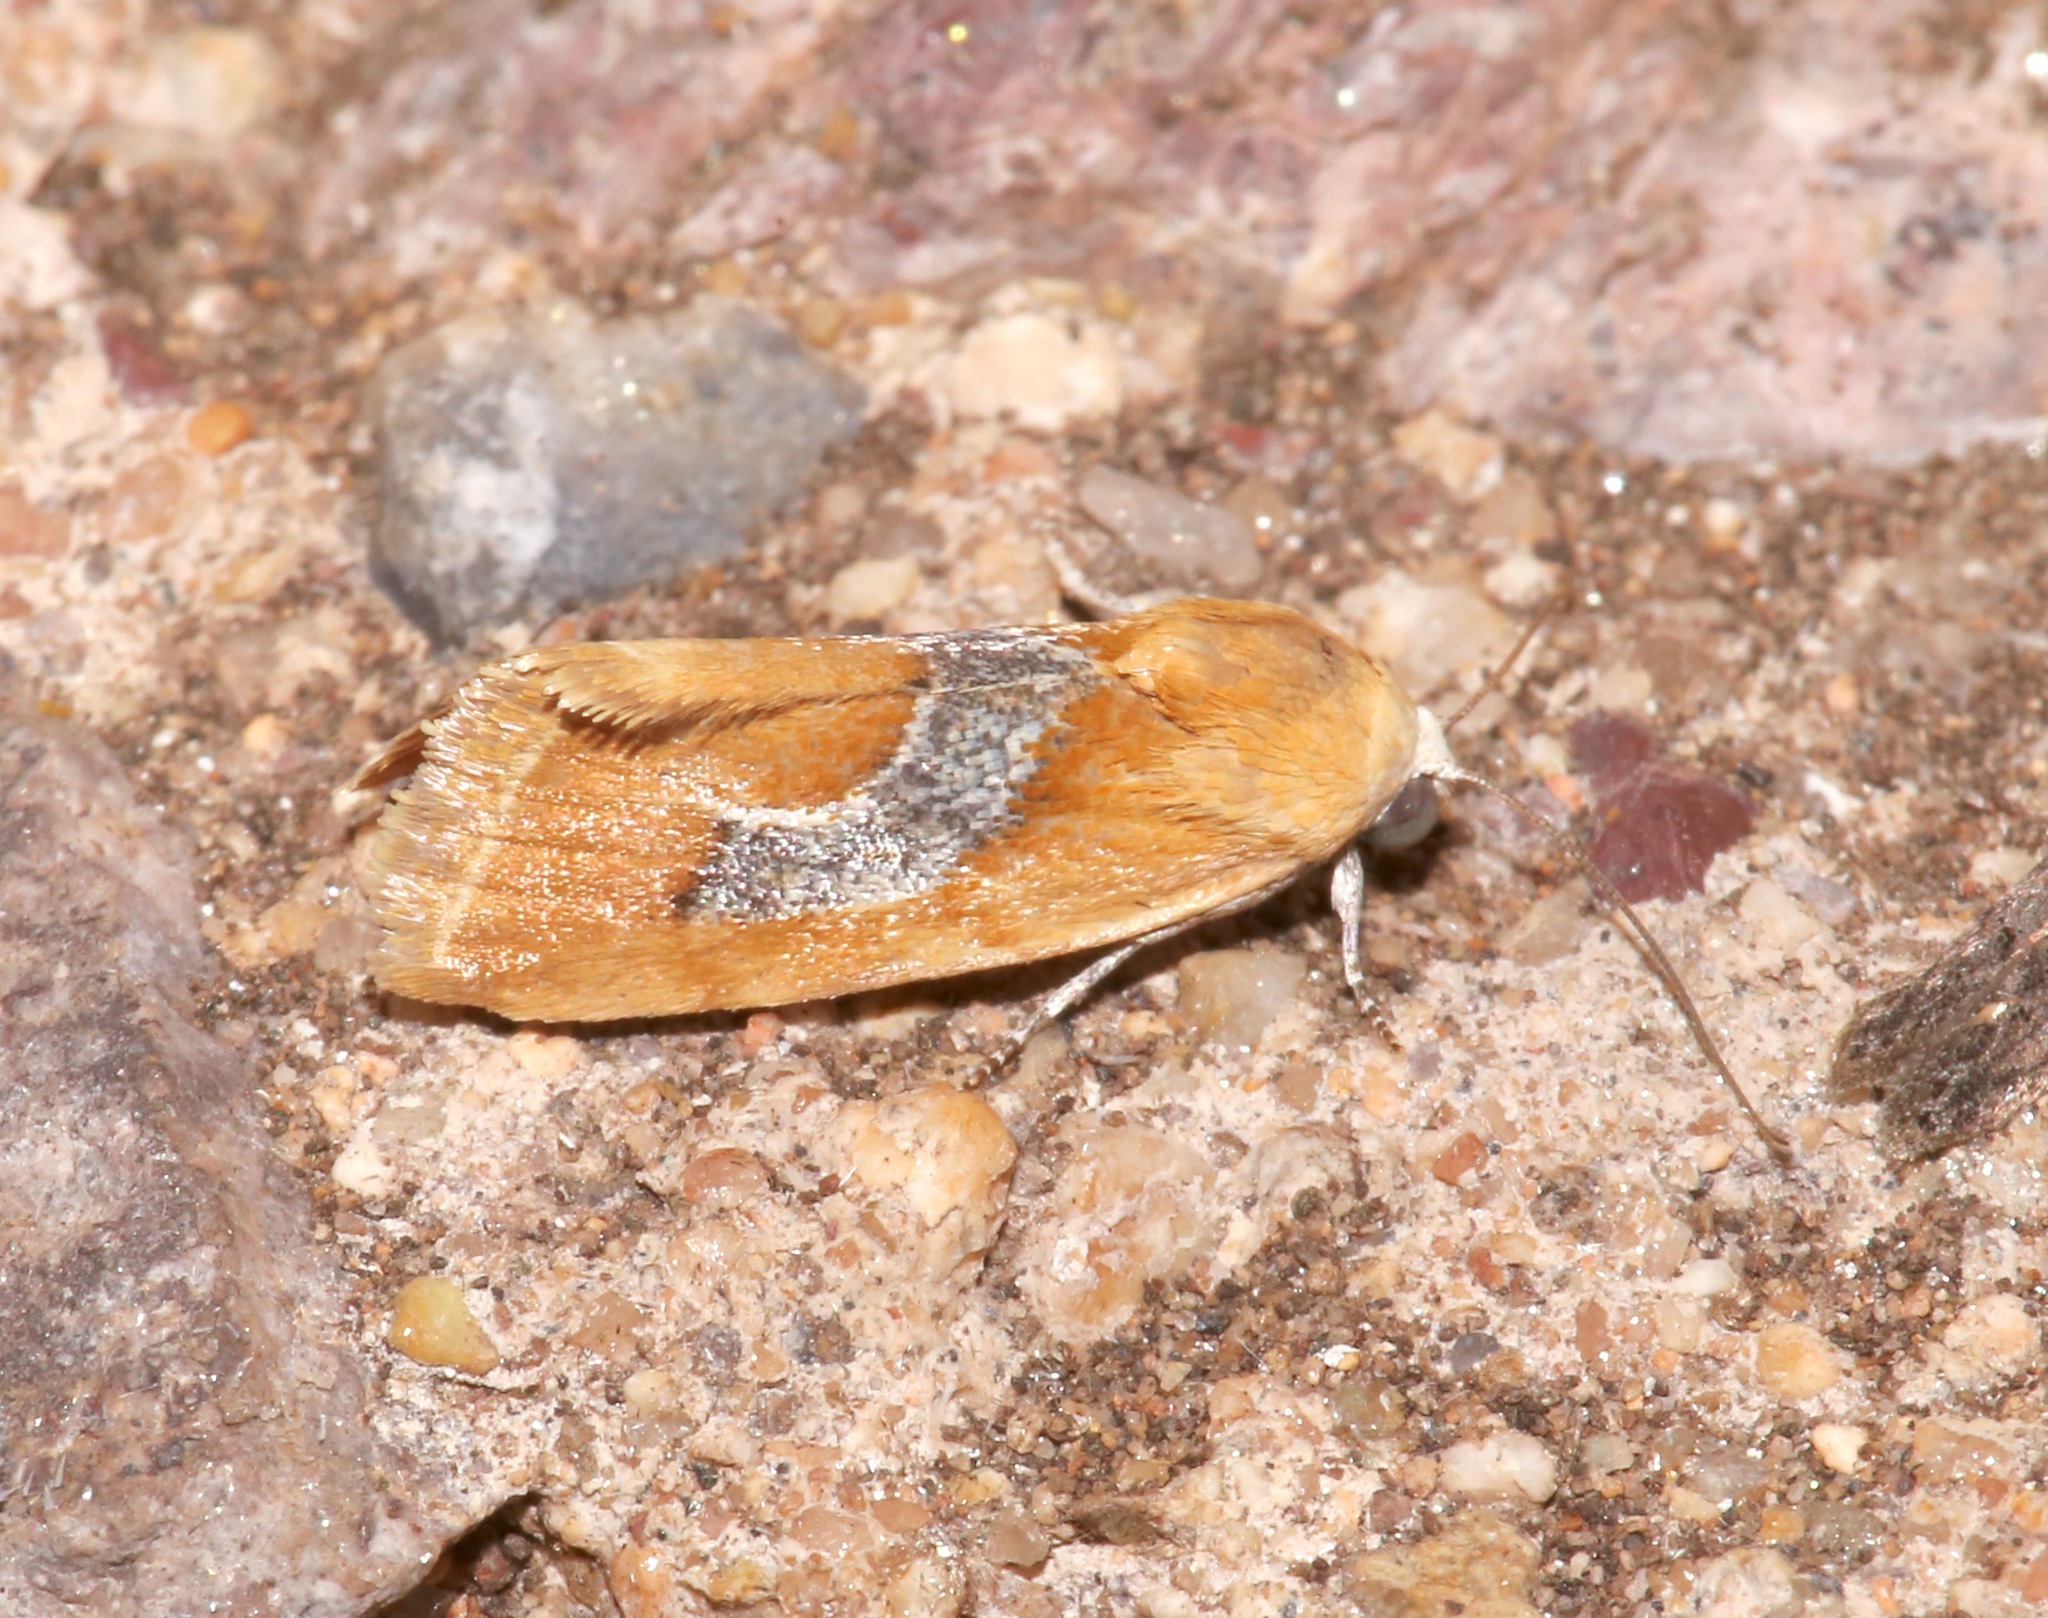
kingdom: Animalia
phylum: Arthropoda
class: Insecta
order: Lepidoptera
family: Noctuidae
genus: Ponometia
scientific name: Ponometia venustula
